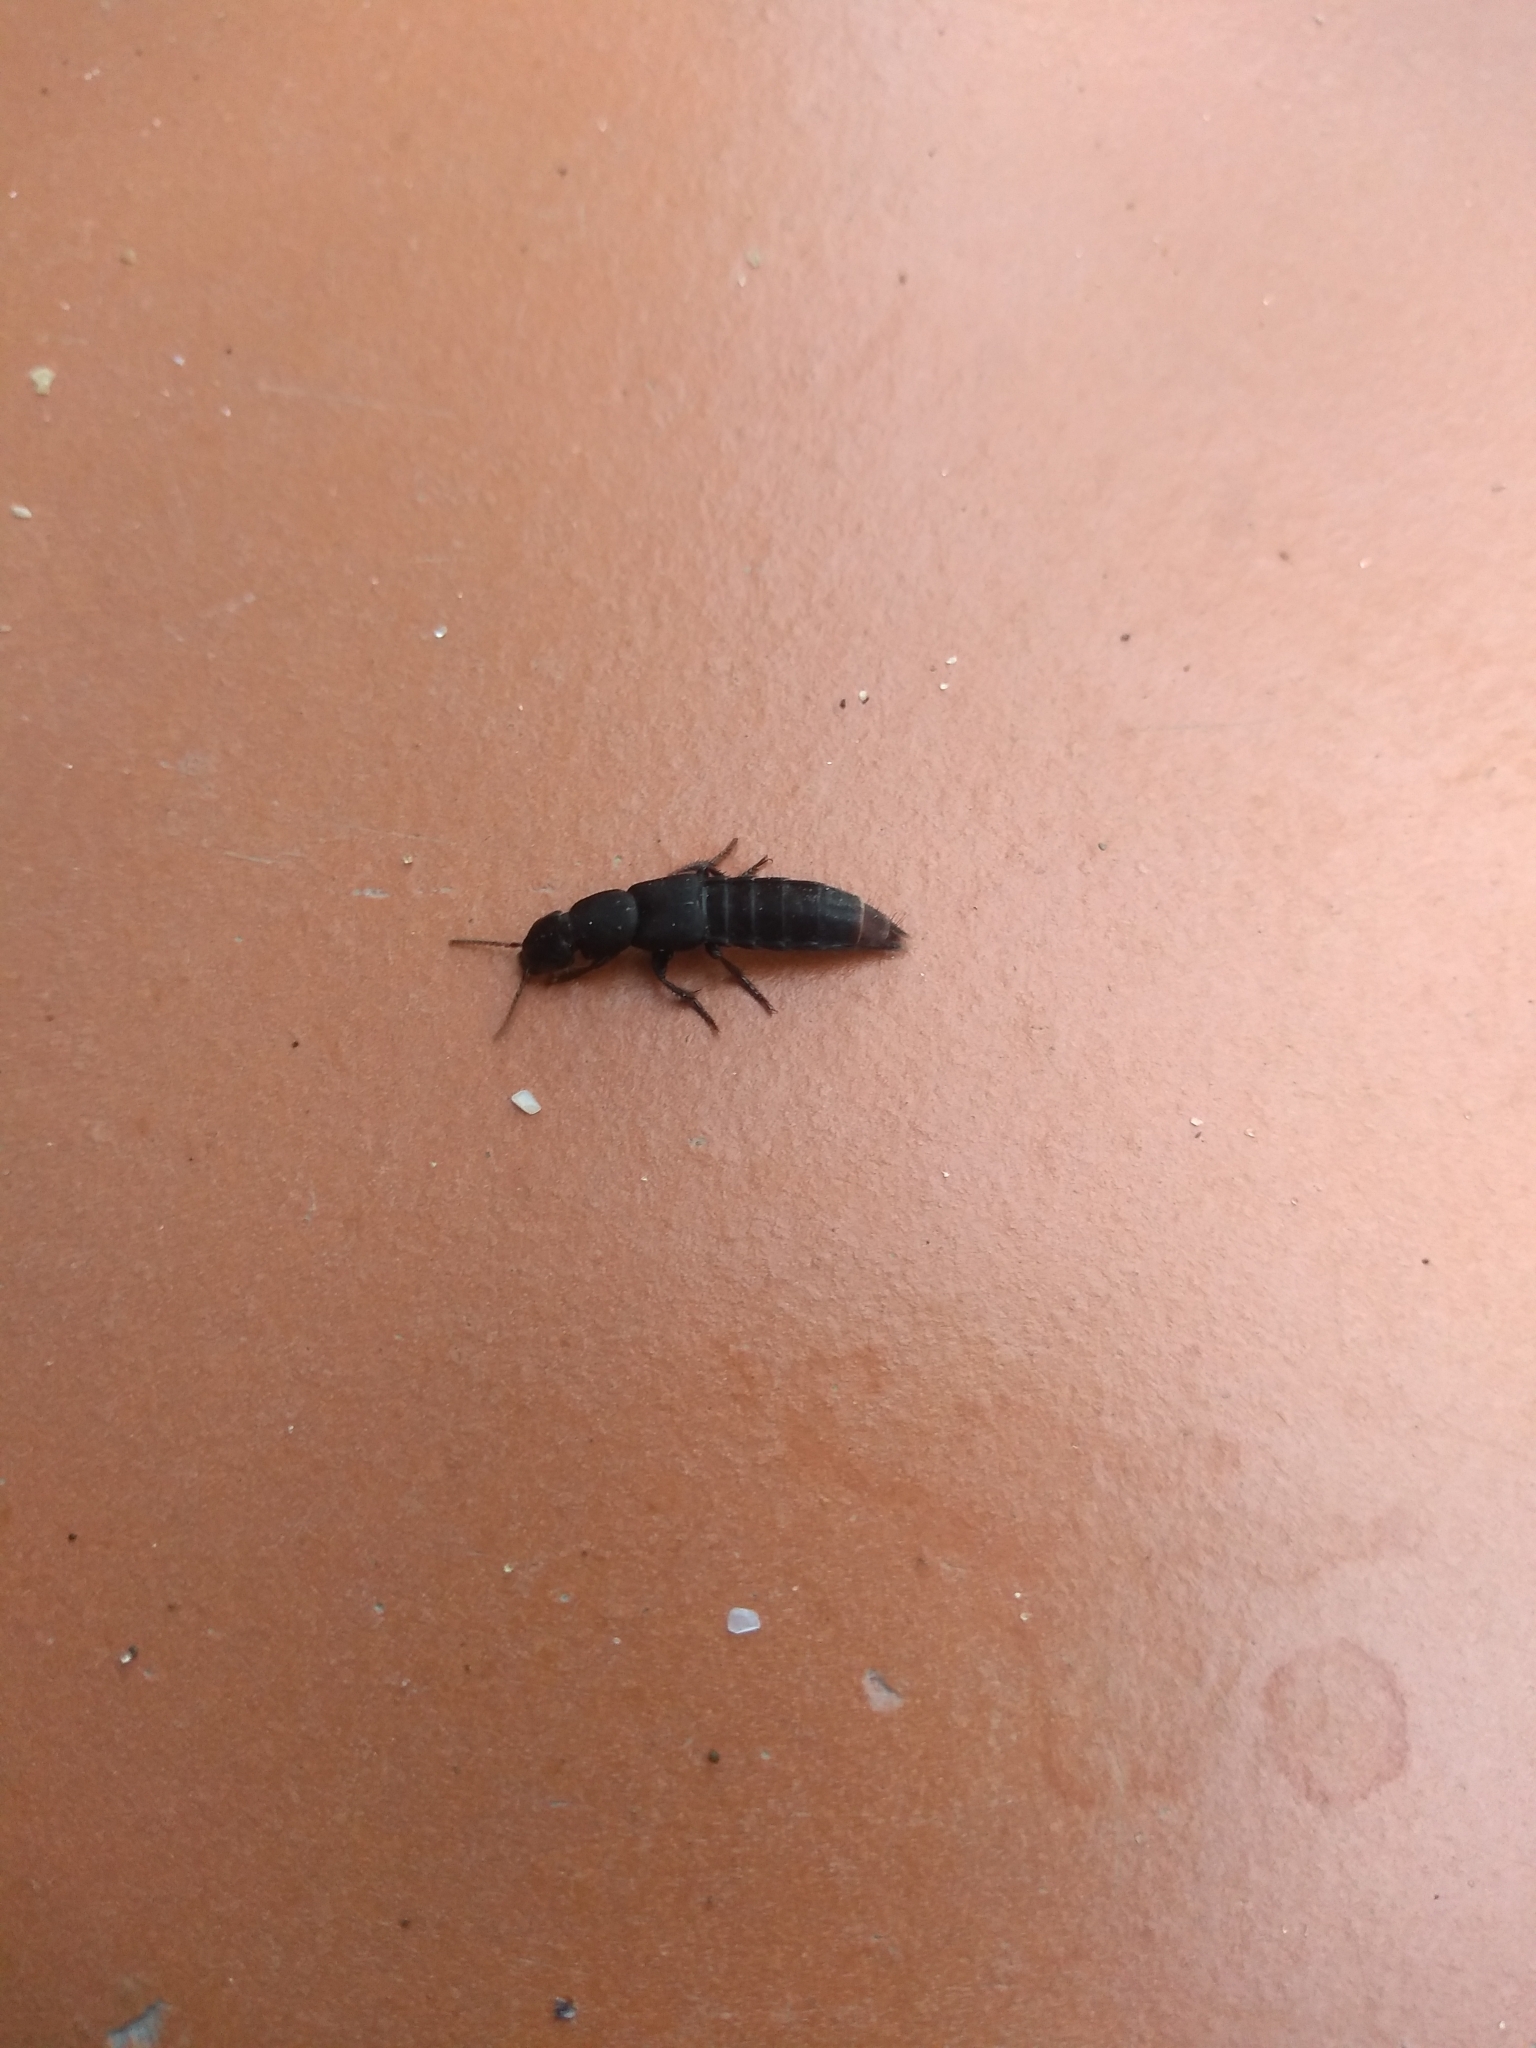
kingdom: Animalia
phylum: Arthropoda
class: Insecta
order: Coleoptera
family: Staphylinidae
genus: Platydracus
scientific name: Platydracus scabrosus
